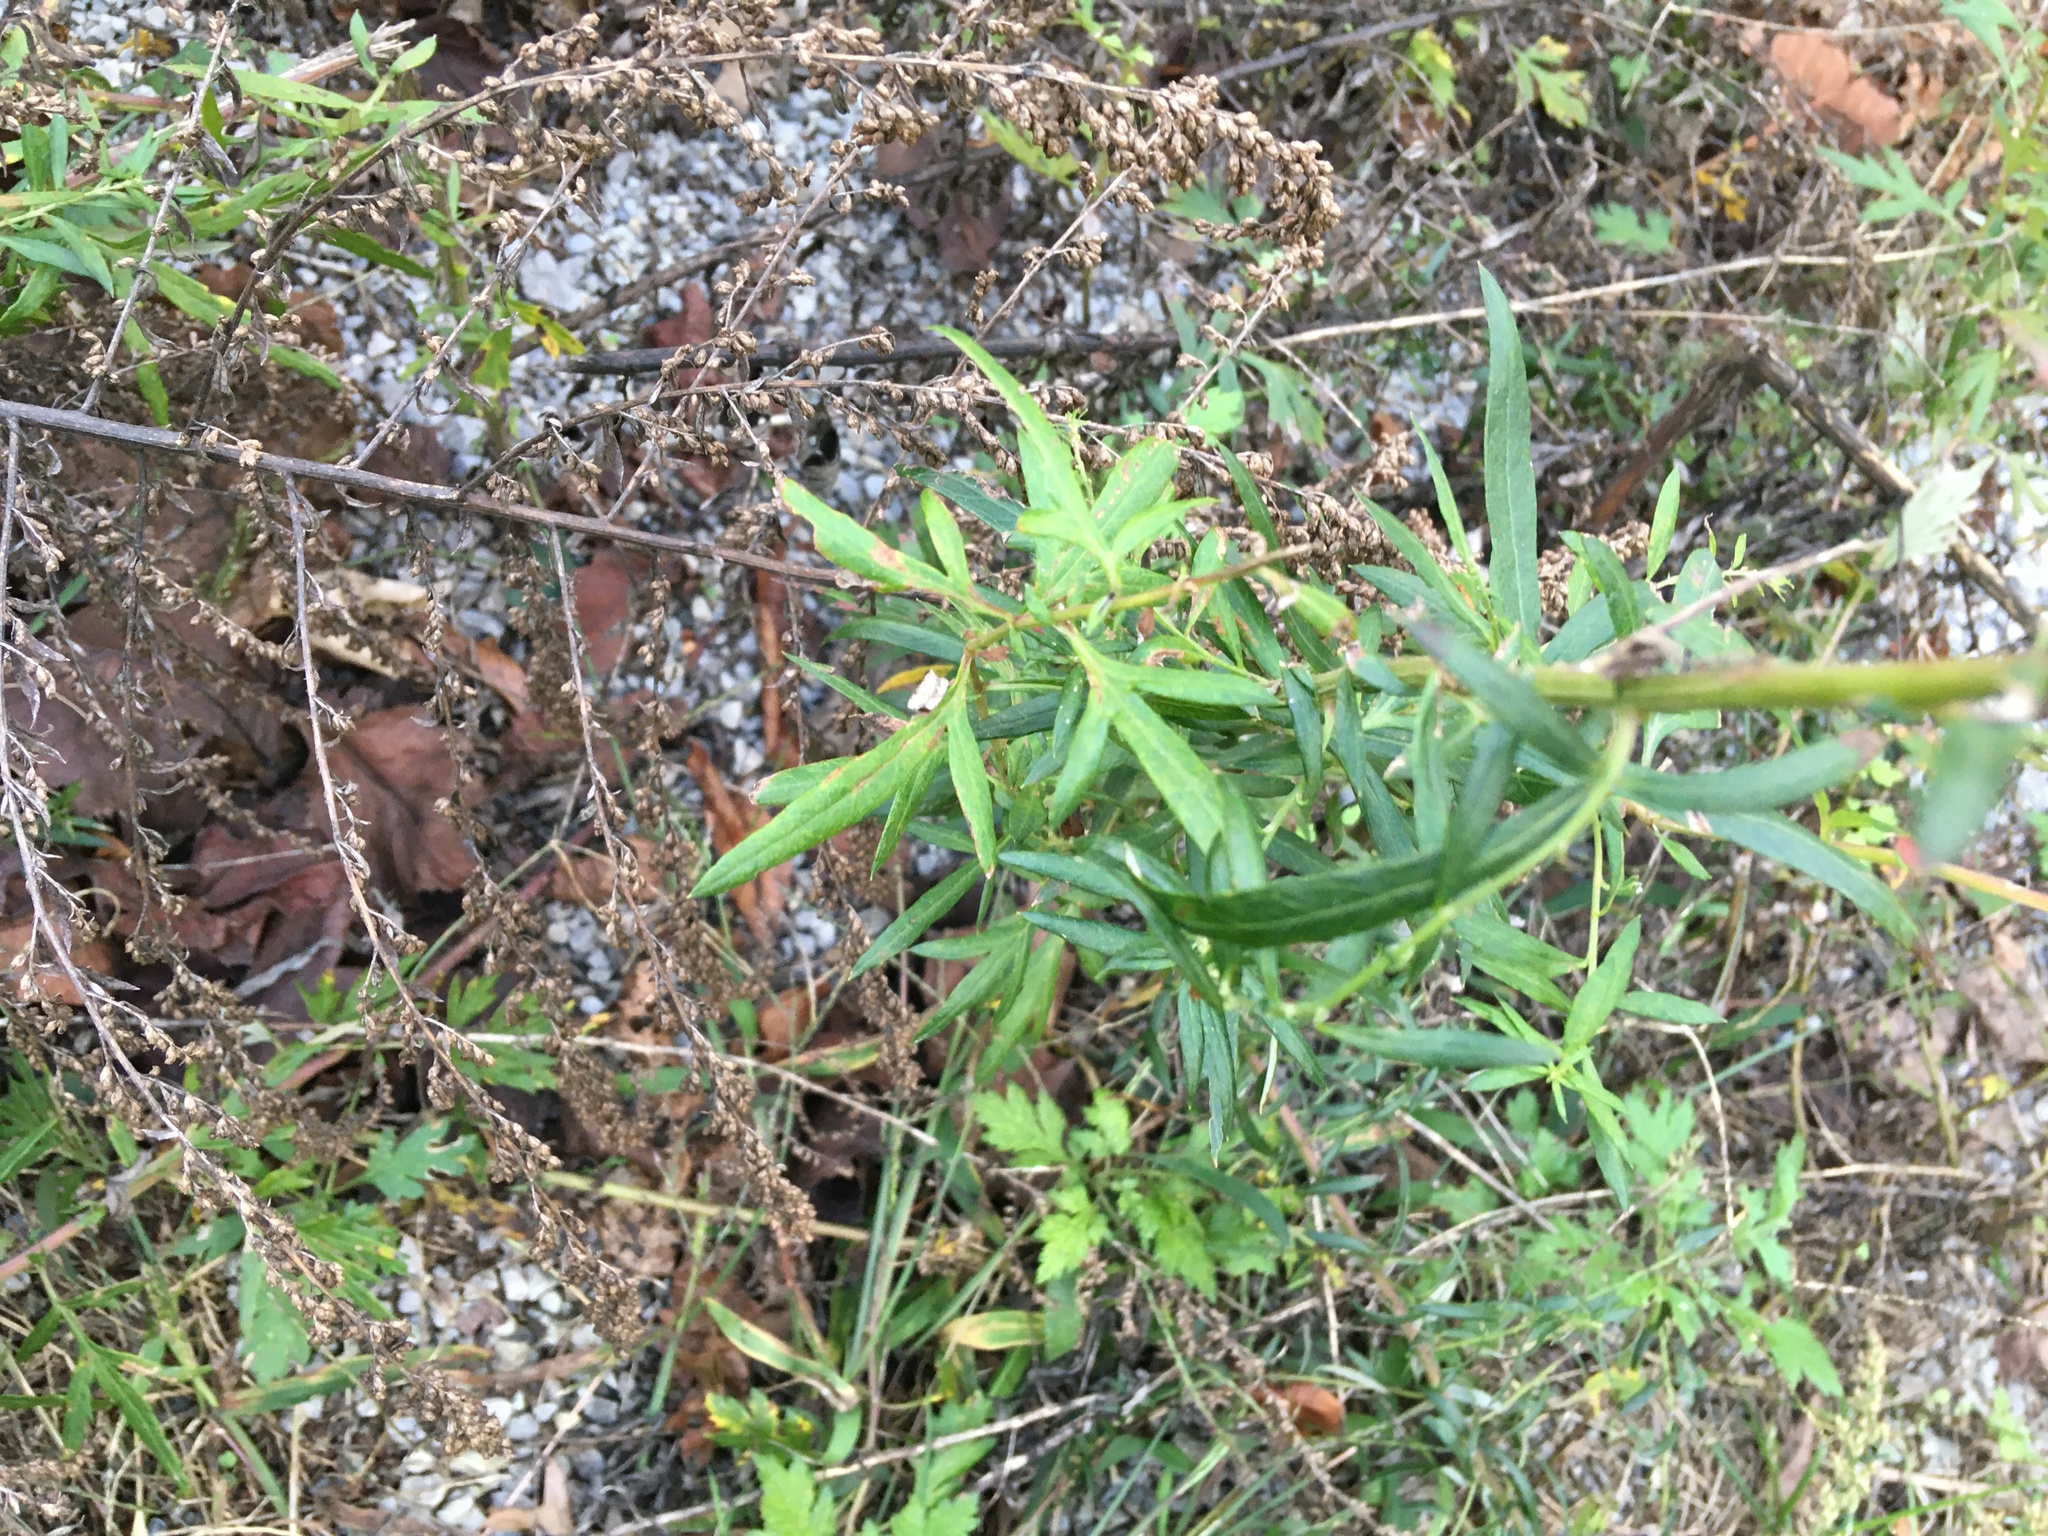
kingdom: Plantae
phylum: Tracheophyta
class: Magnoliopsida
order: Asterales
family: Asteraceae
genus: Artemisia
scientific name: Artemisia vulgaris
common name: Mugwort
